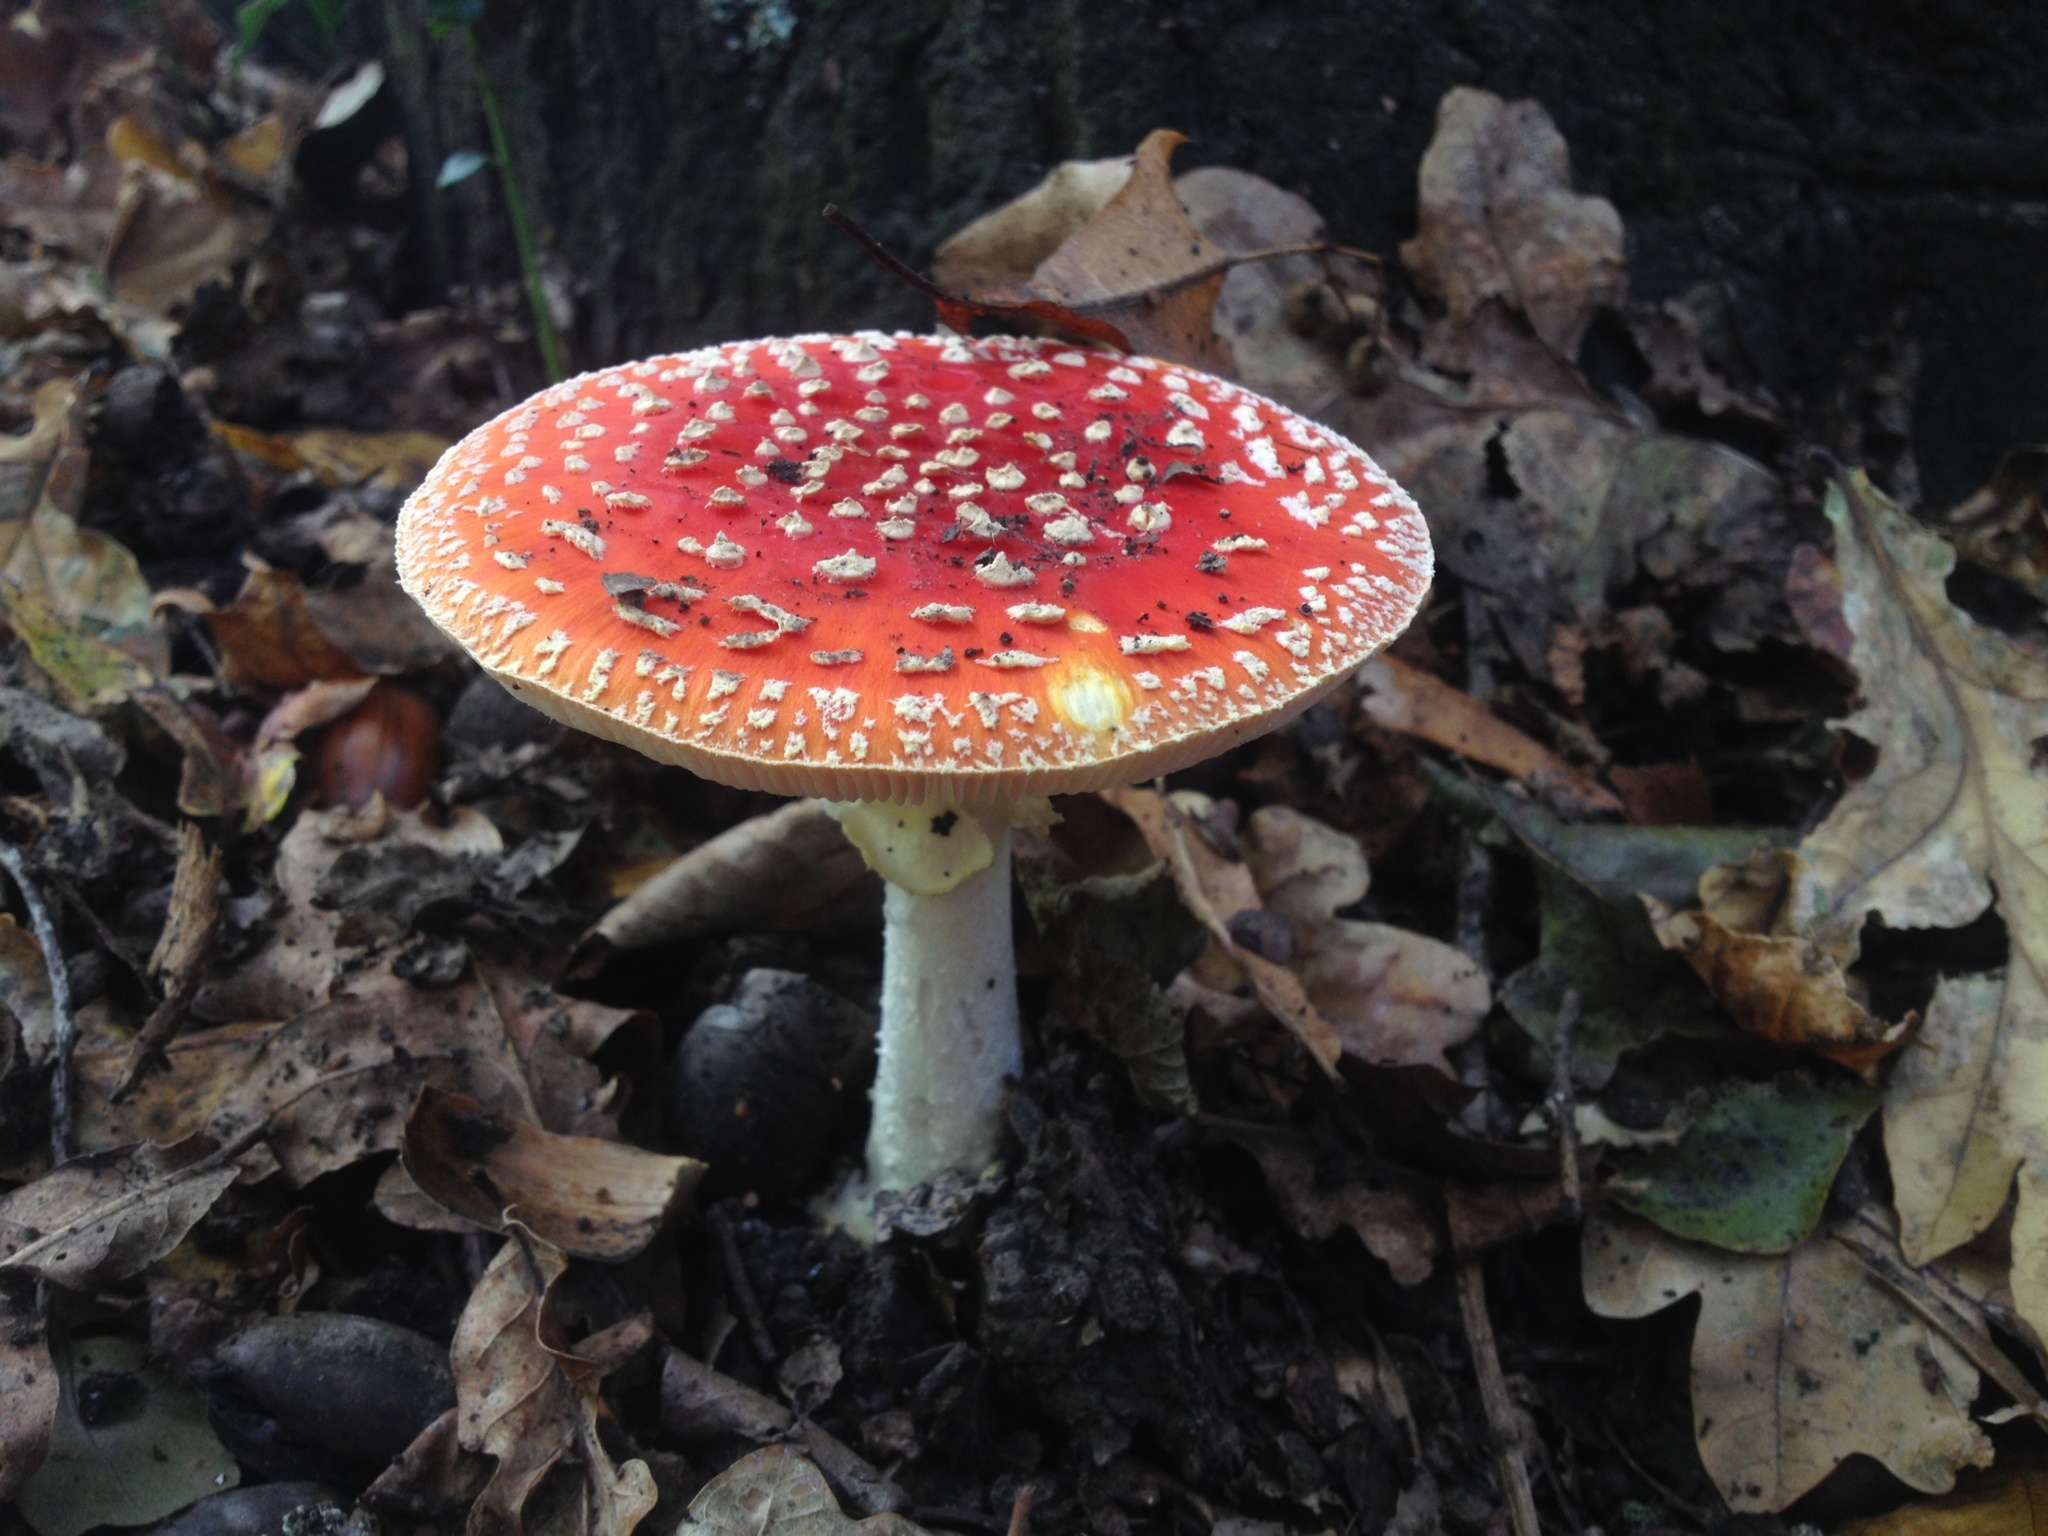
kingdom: Fungi
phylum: Basidiomycota
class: Agaricomycetes
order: Agaricales
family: Amanitaceae
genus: Amanita
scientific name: Amanita muscaria
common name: Fly agaric
